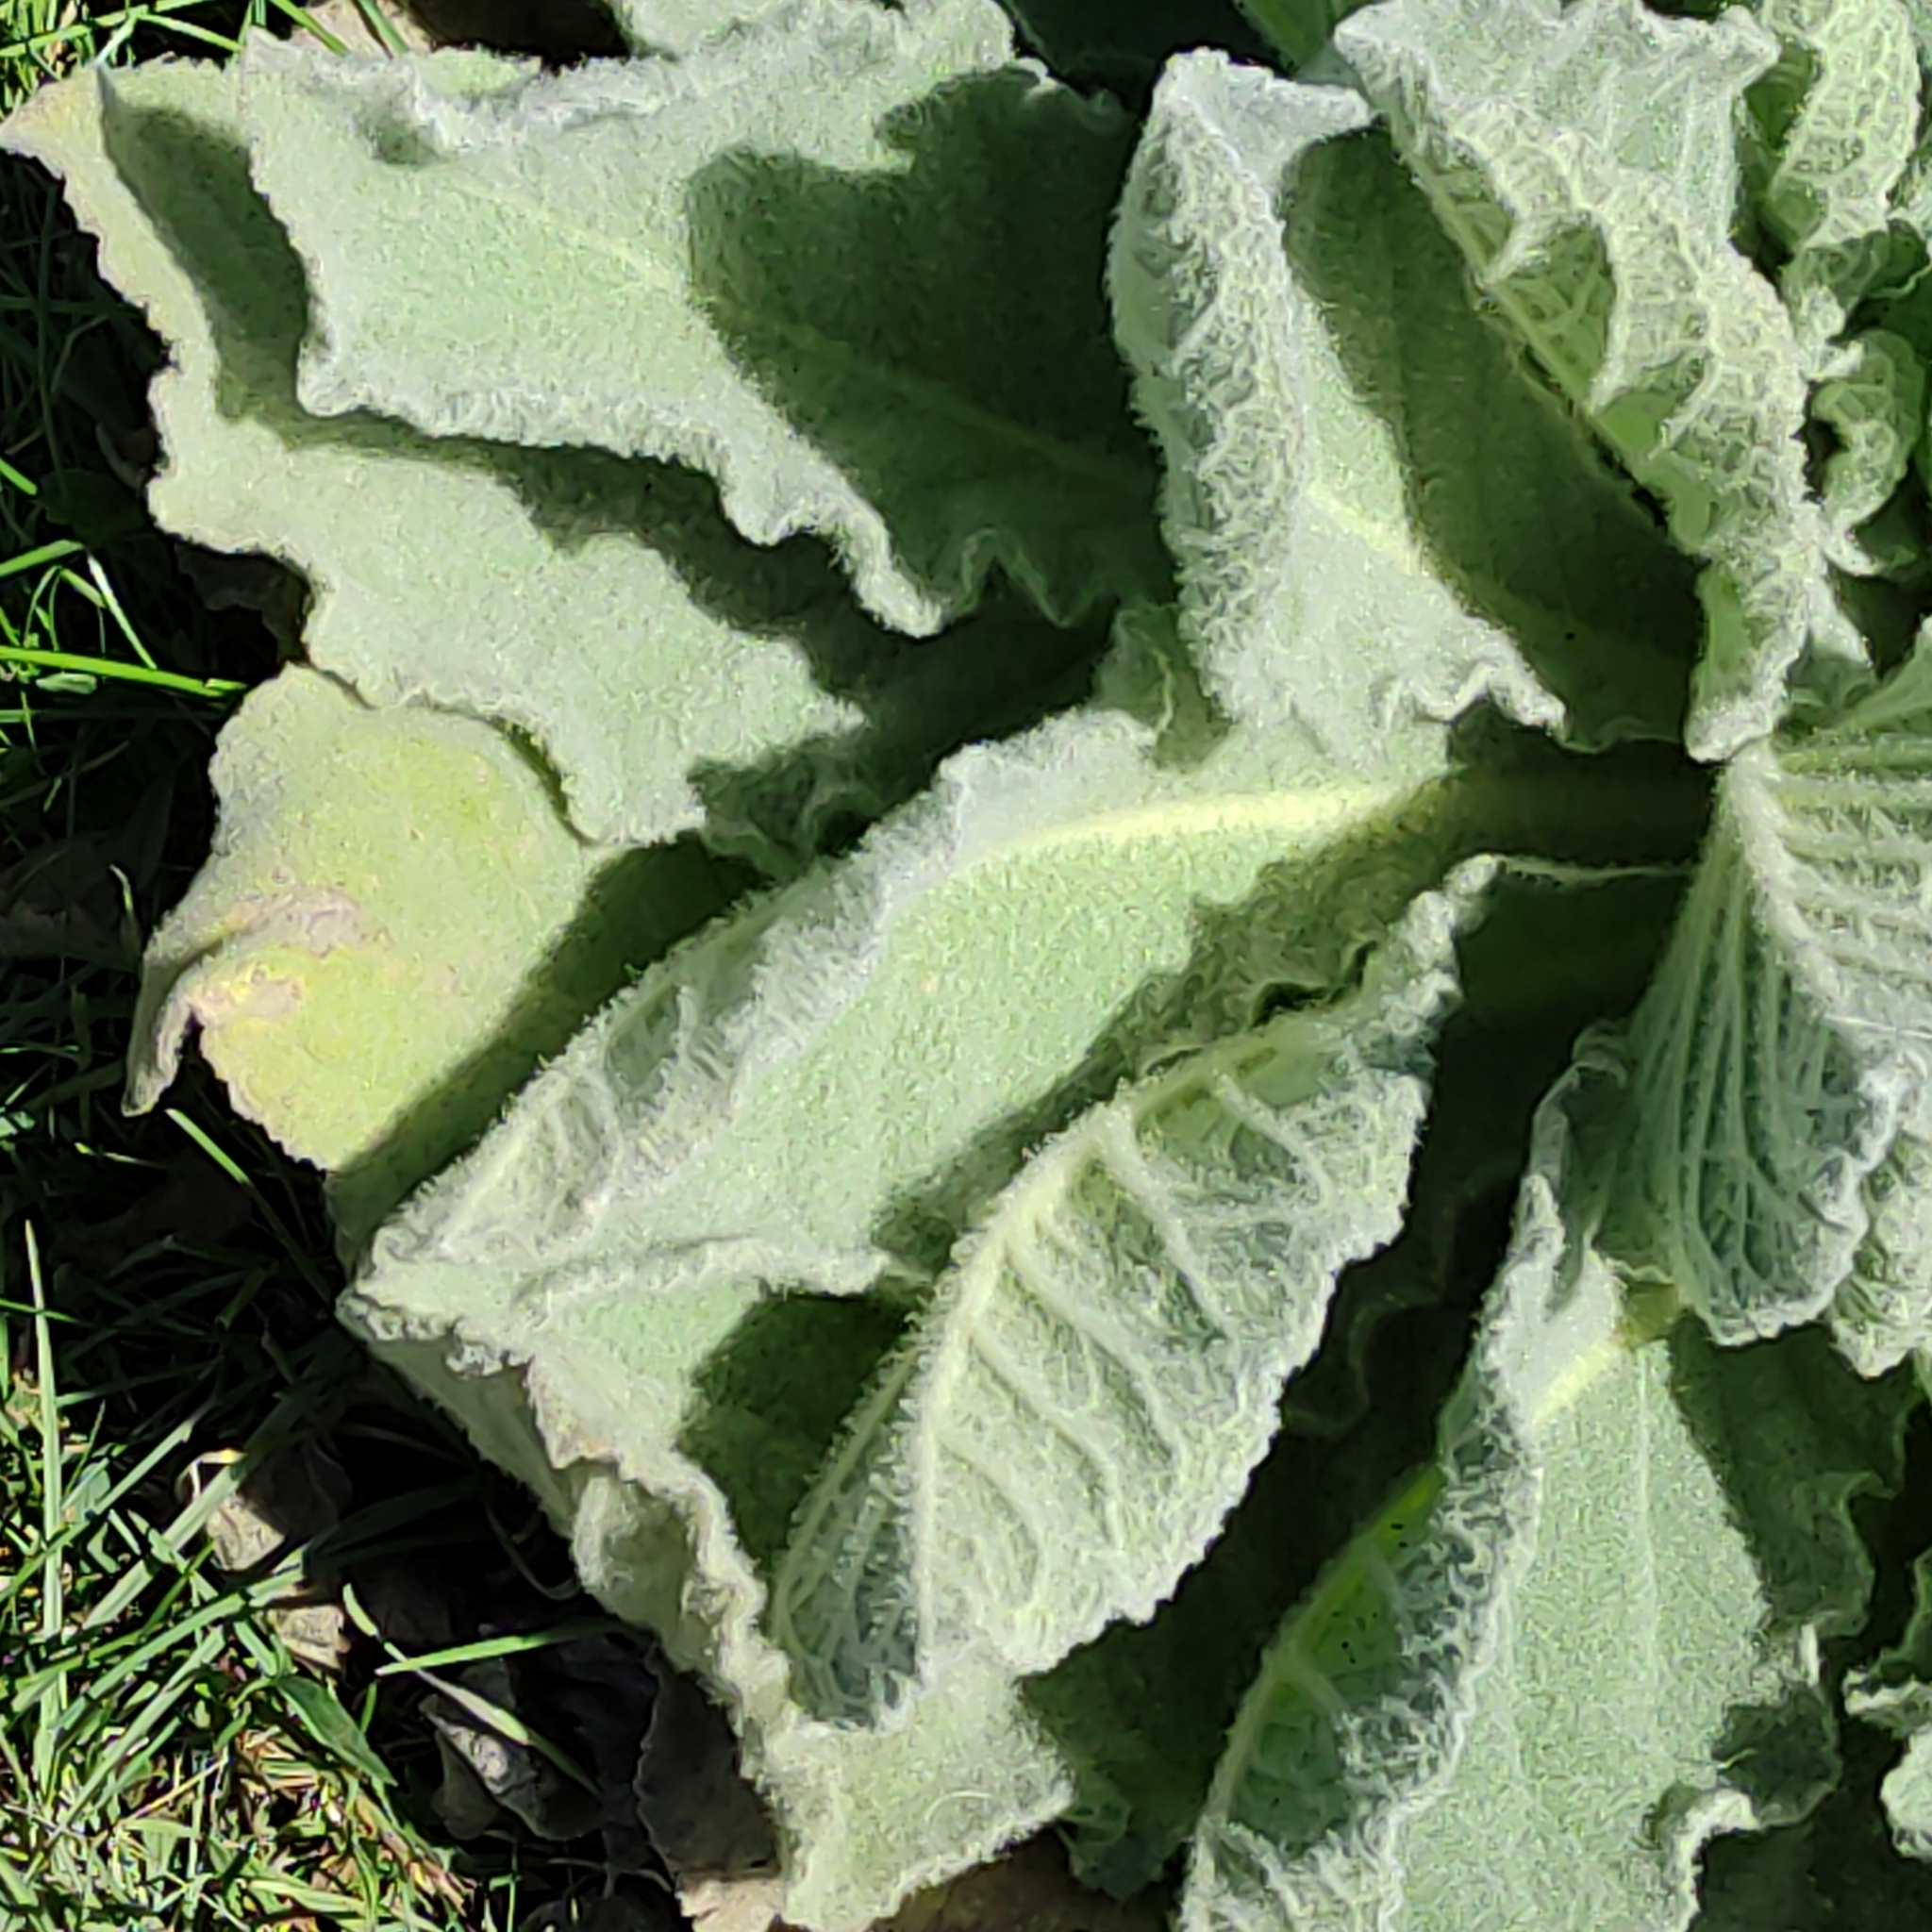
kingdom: Plantae
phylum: Tracheophyta
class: Magnoliopsida
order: Lamiales
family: Scrophulariaceae
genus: Verbascum
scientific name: Verbascum thapsus
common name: Common mullein
